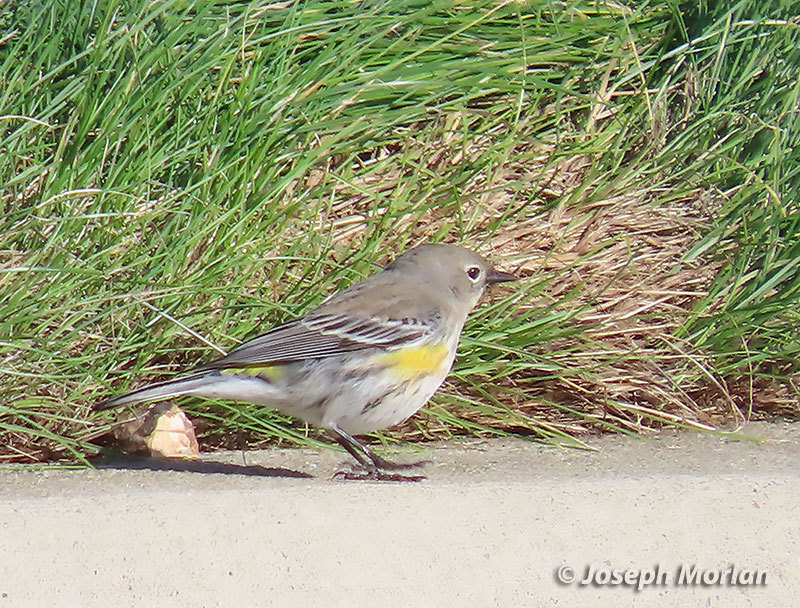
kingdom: Animalia
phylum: Chordata
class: Aves
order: Passeriformes
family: Parulidae
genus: Setophaga
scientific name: Setophaga coronata
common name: Myrtle warbler
